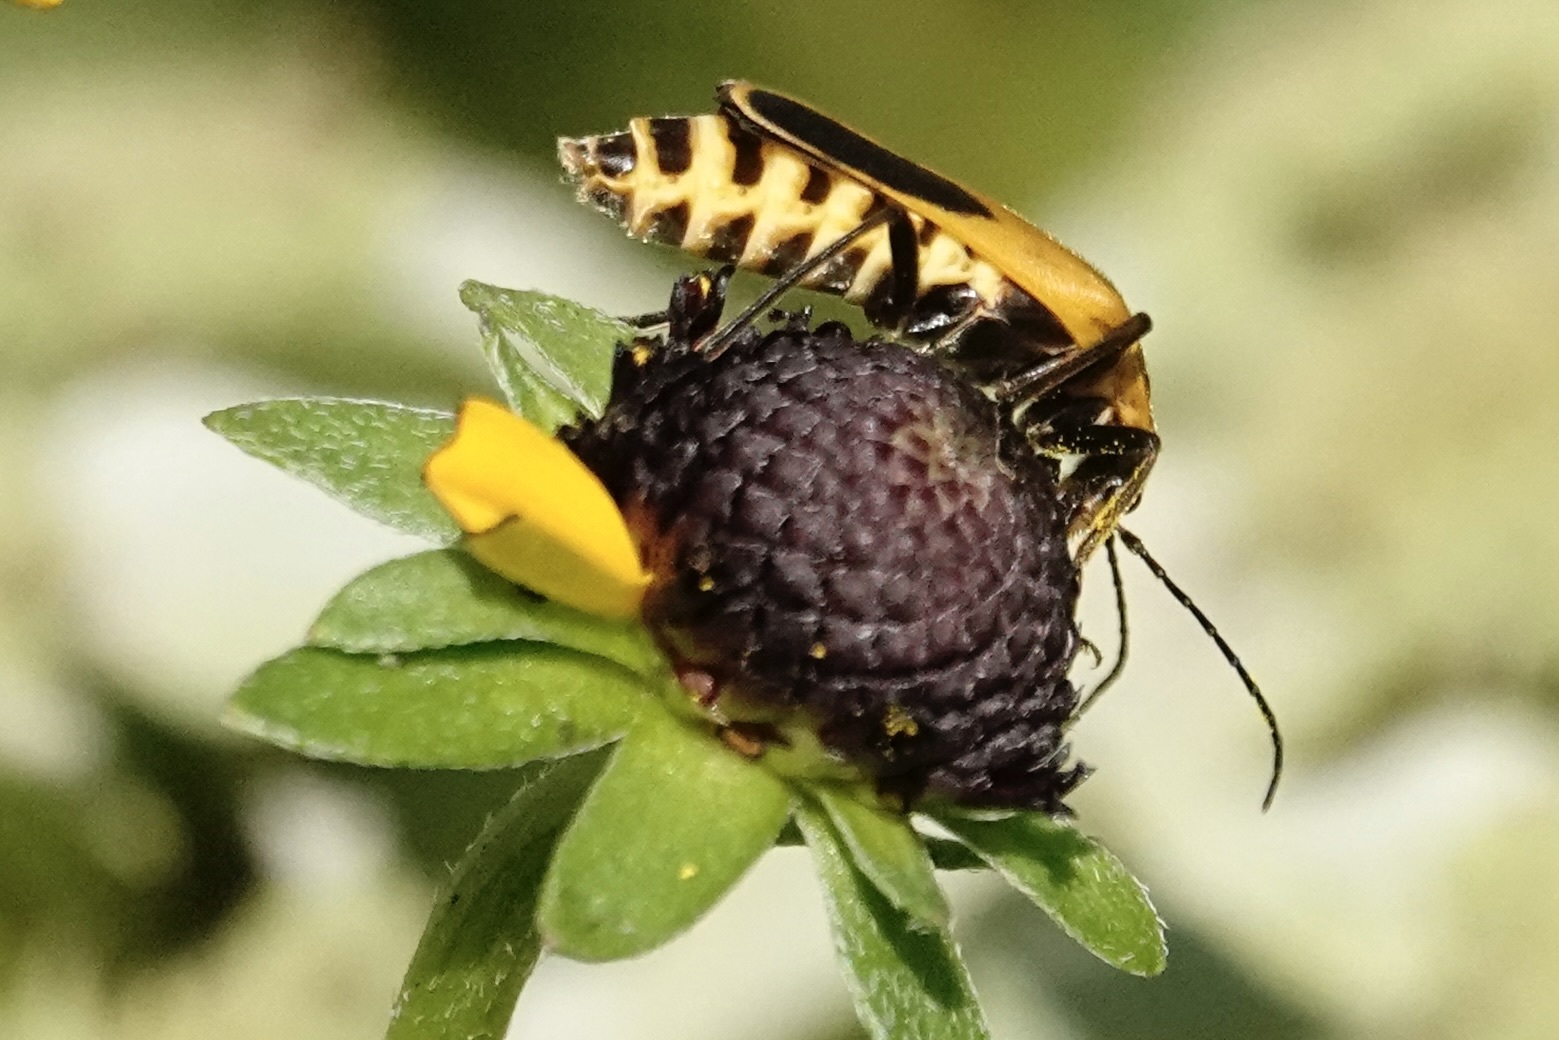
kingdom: Animalia
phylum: Arthropoda
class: Insecta
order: Coleoptera
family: Cantharidae
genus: Chauliognathus
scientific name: Chauliognathus pensylvanicus
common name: Goldenrod soldier beetle
